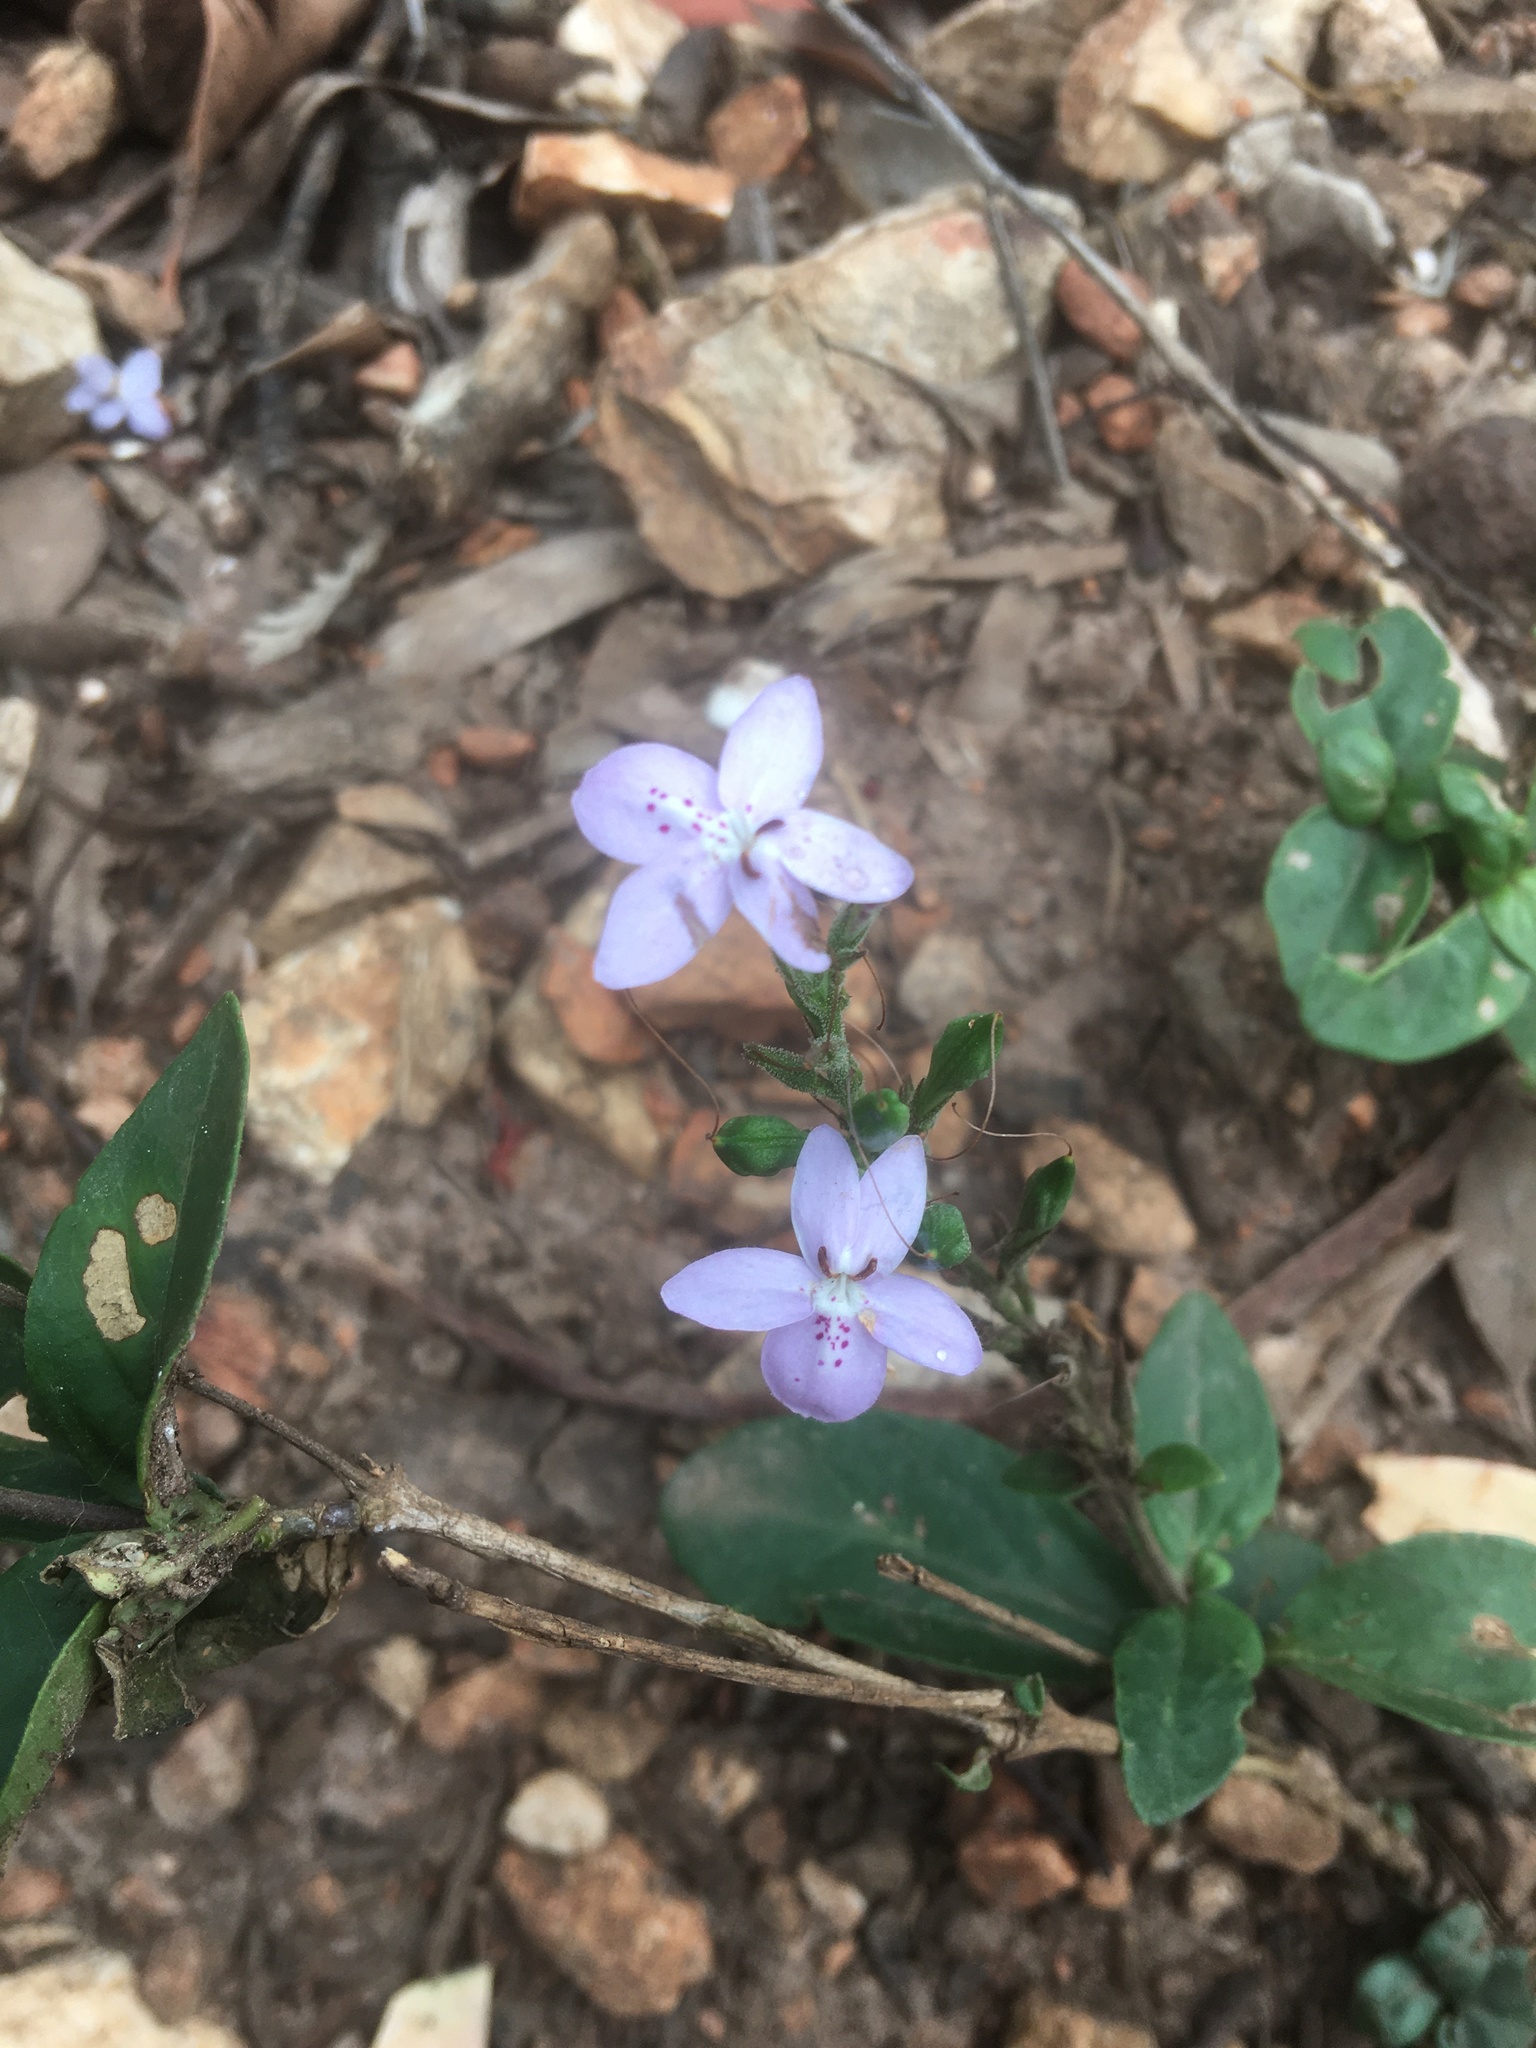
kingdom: Plantae
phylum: Tracheophyta
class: Magnoliopsida
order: Lamiales
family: Acanthaceae
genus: Pseuderanthemum
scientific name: Pseuderanthemum variabile
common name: Night and afternoon
